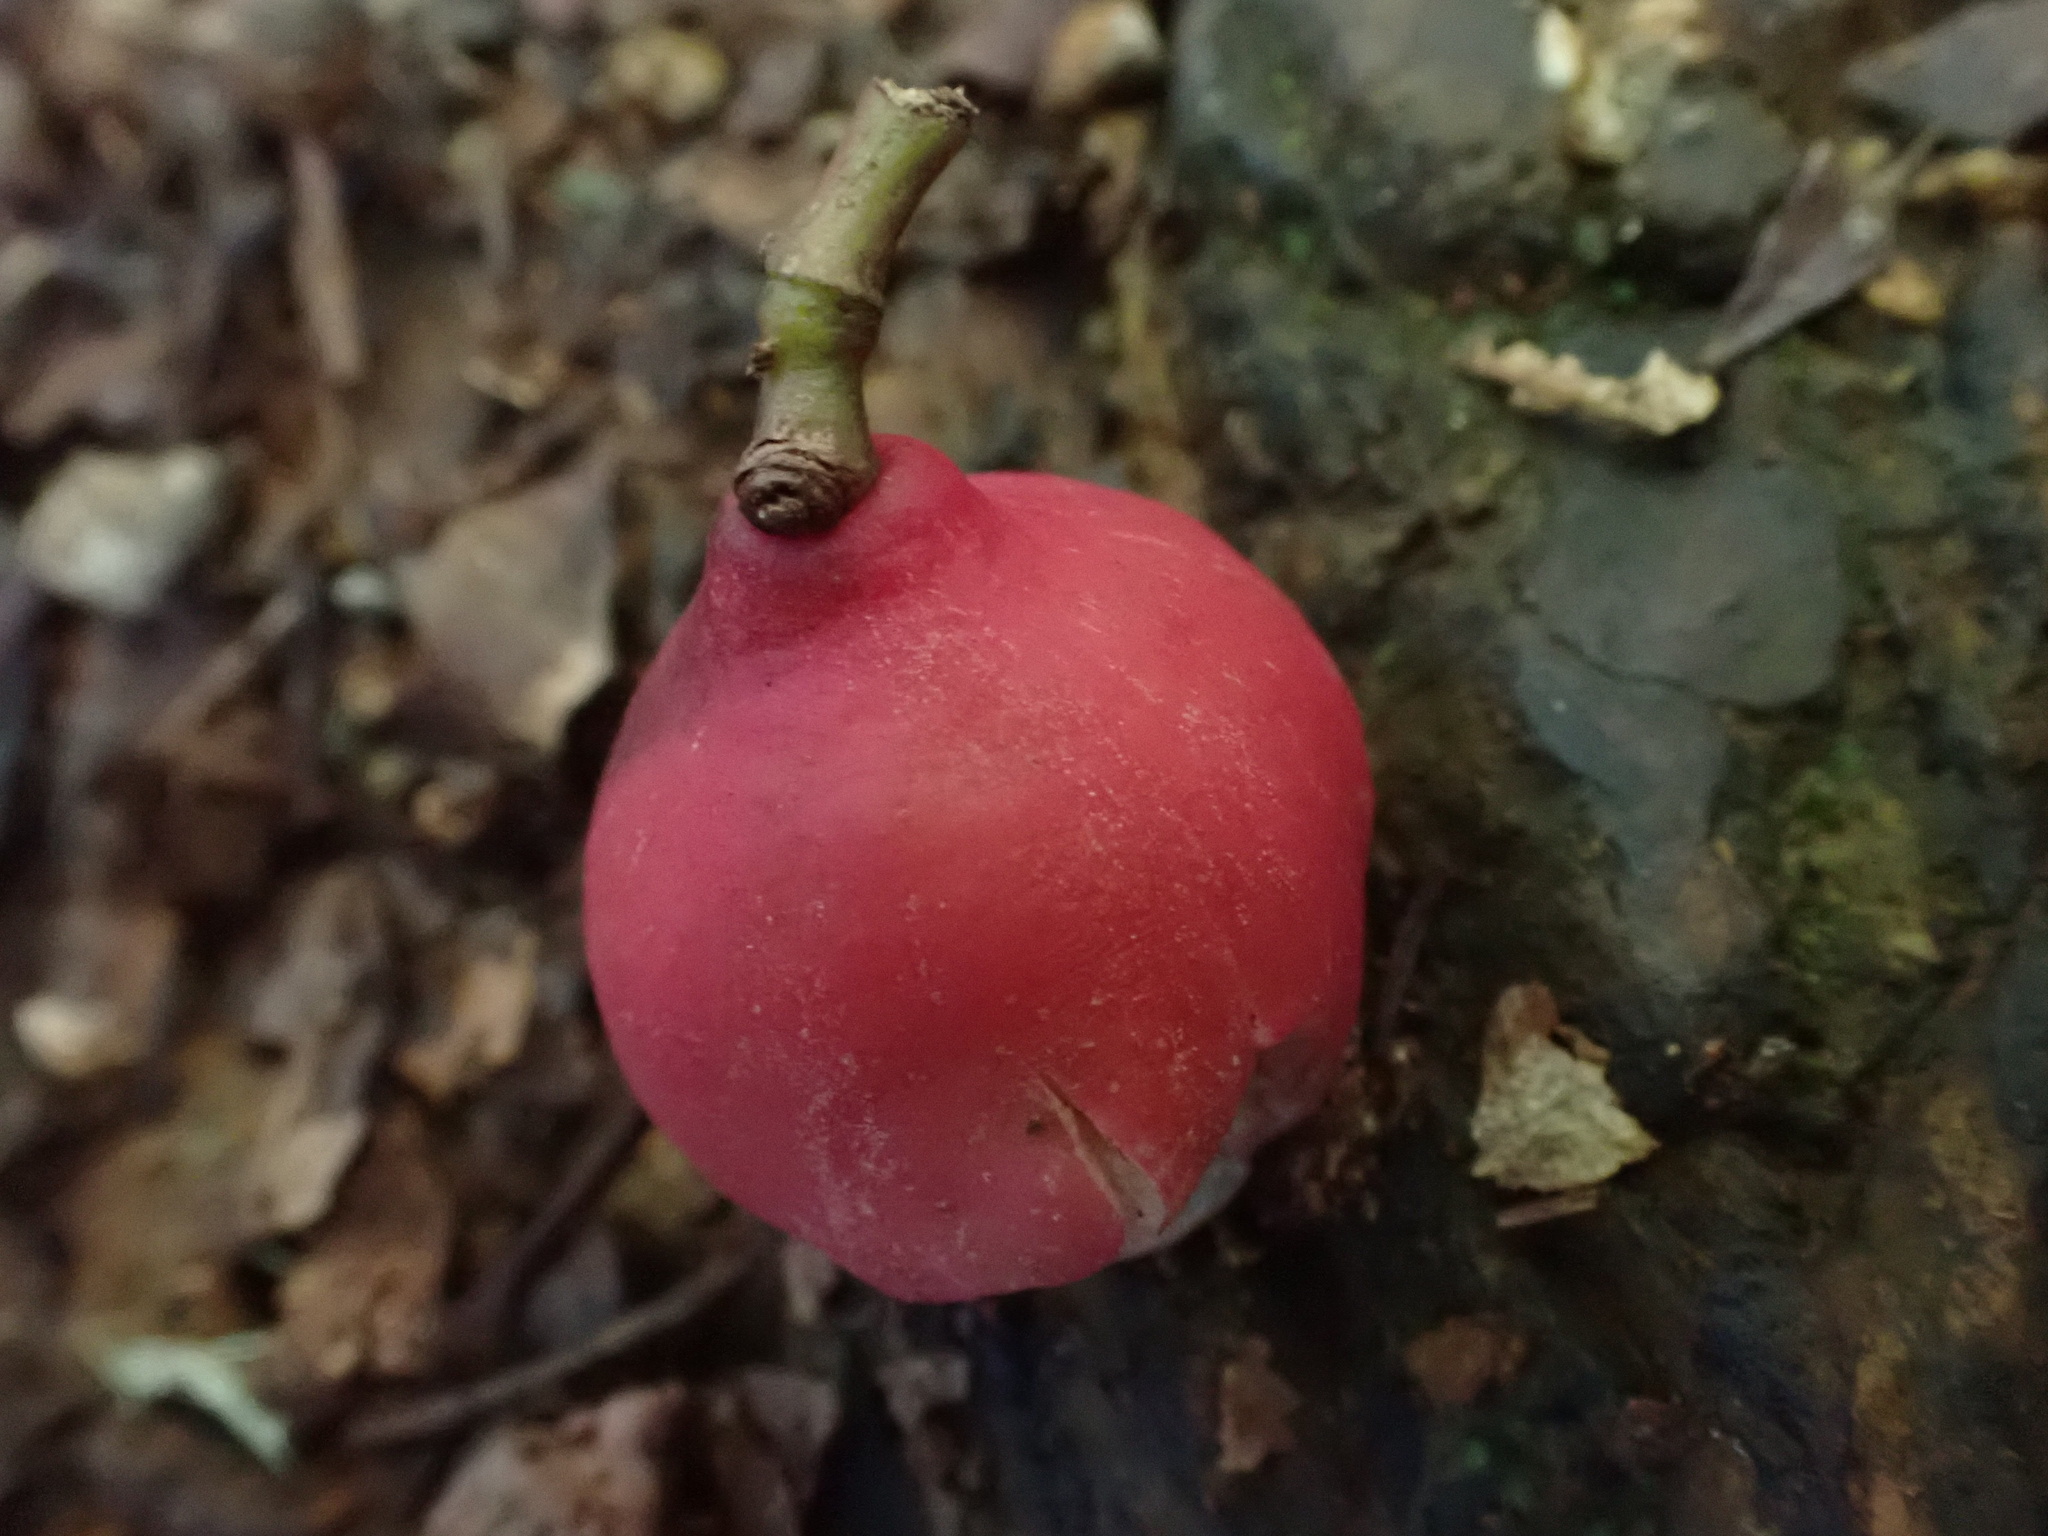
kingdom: Plantae
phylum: Tracheophyta
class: Magnoliopsida
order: Myrtales
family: Myrtaceae
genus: Syzygium
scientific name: Syzygium ingens
